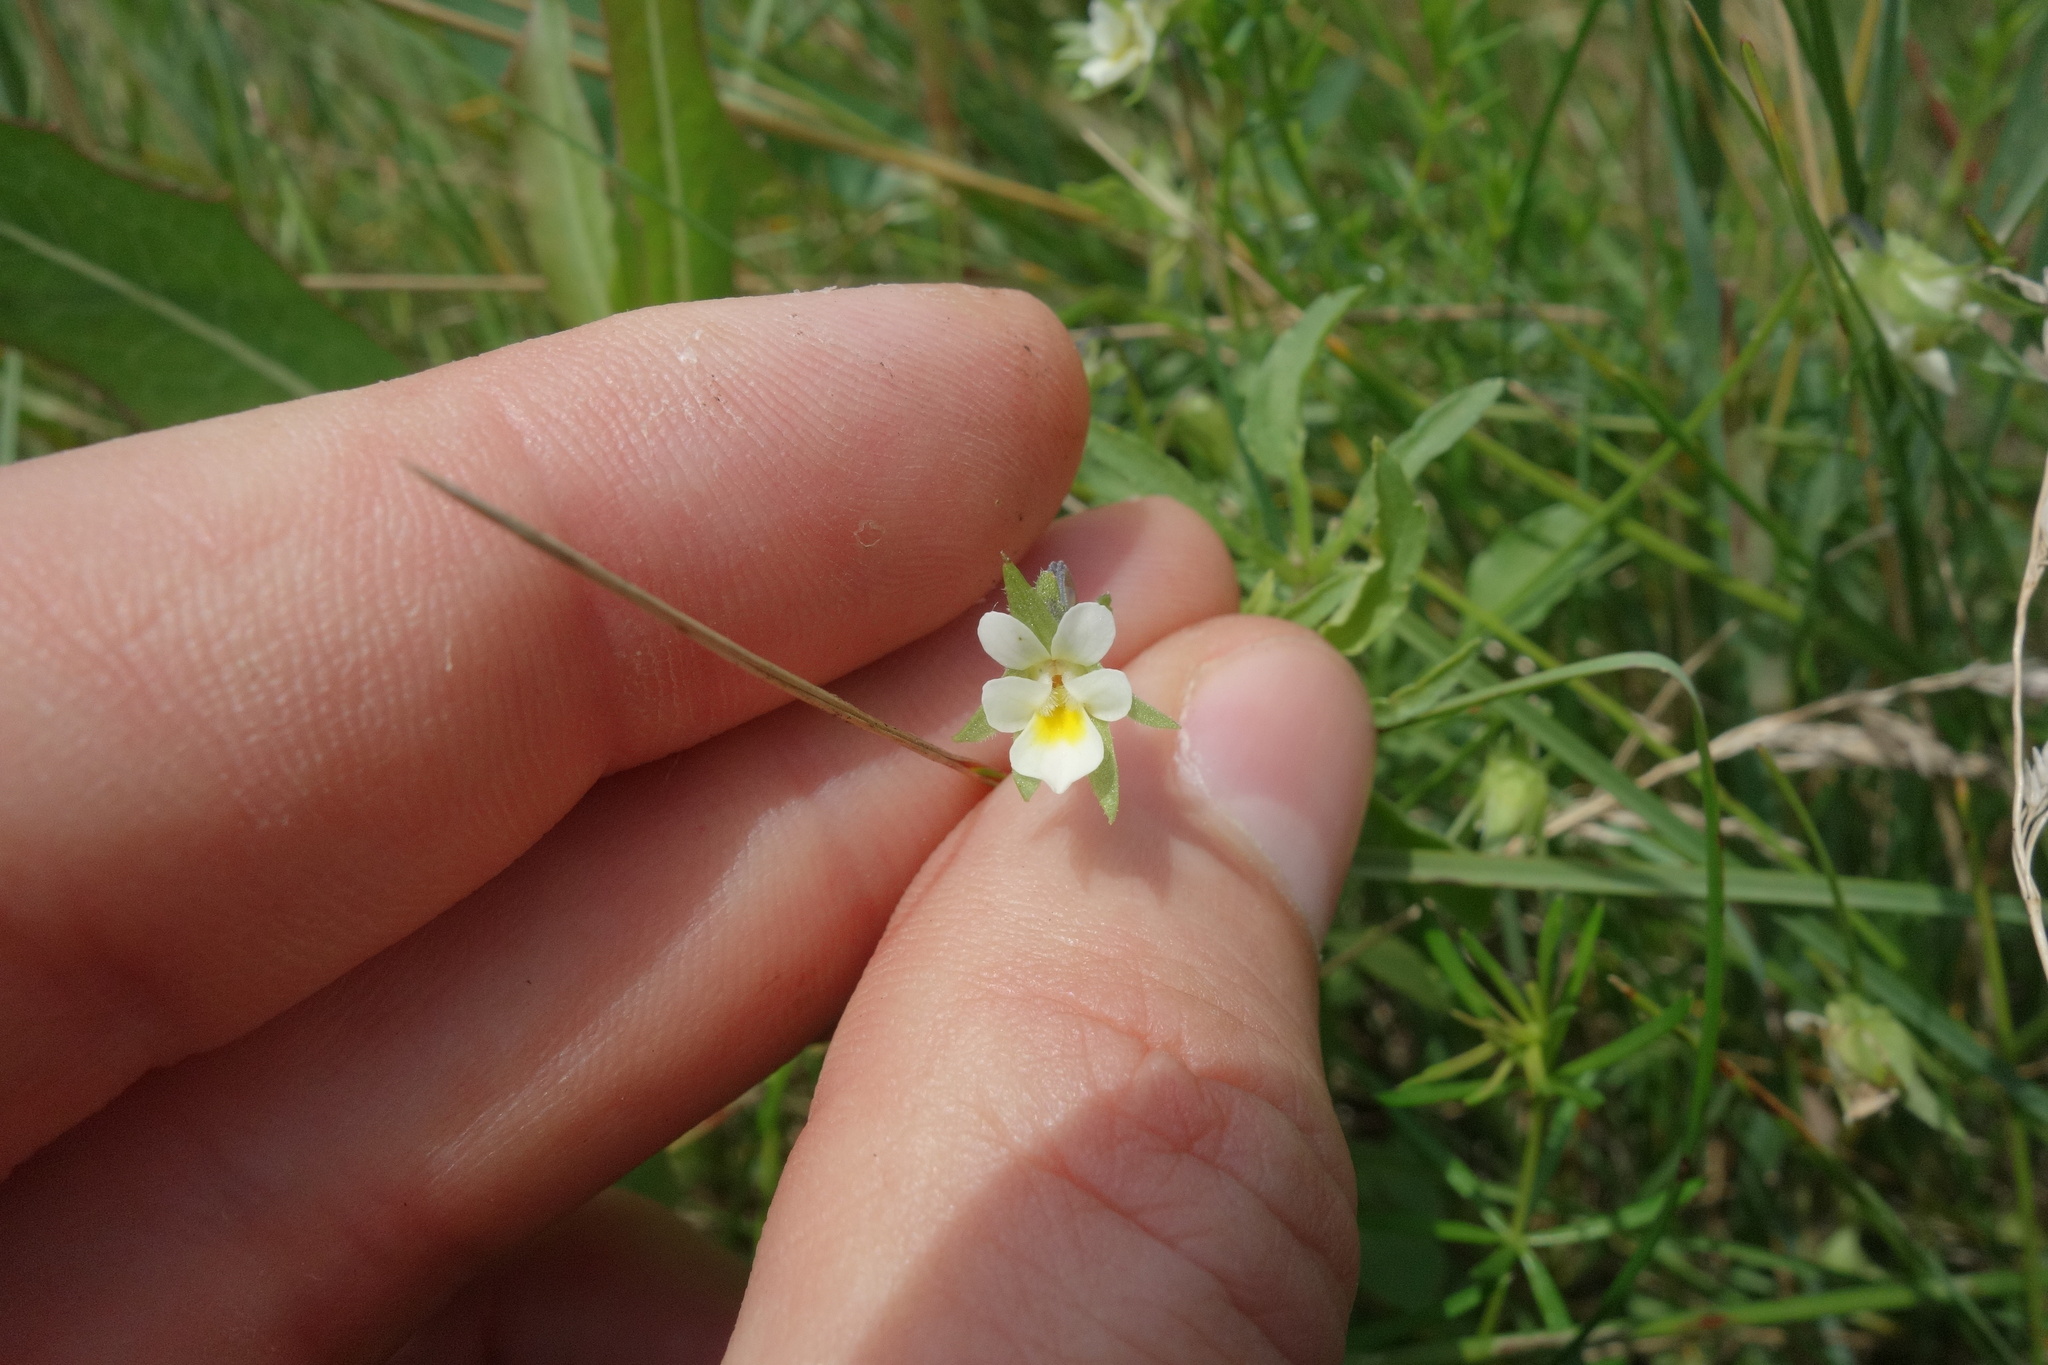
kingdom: Plantae
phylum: Tracheophyta
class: Magnoliopsida
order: Malpighiales
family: Violaceae
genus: Viola
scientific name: Viola arvensis
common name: Field pansy
